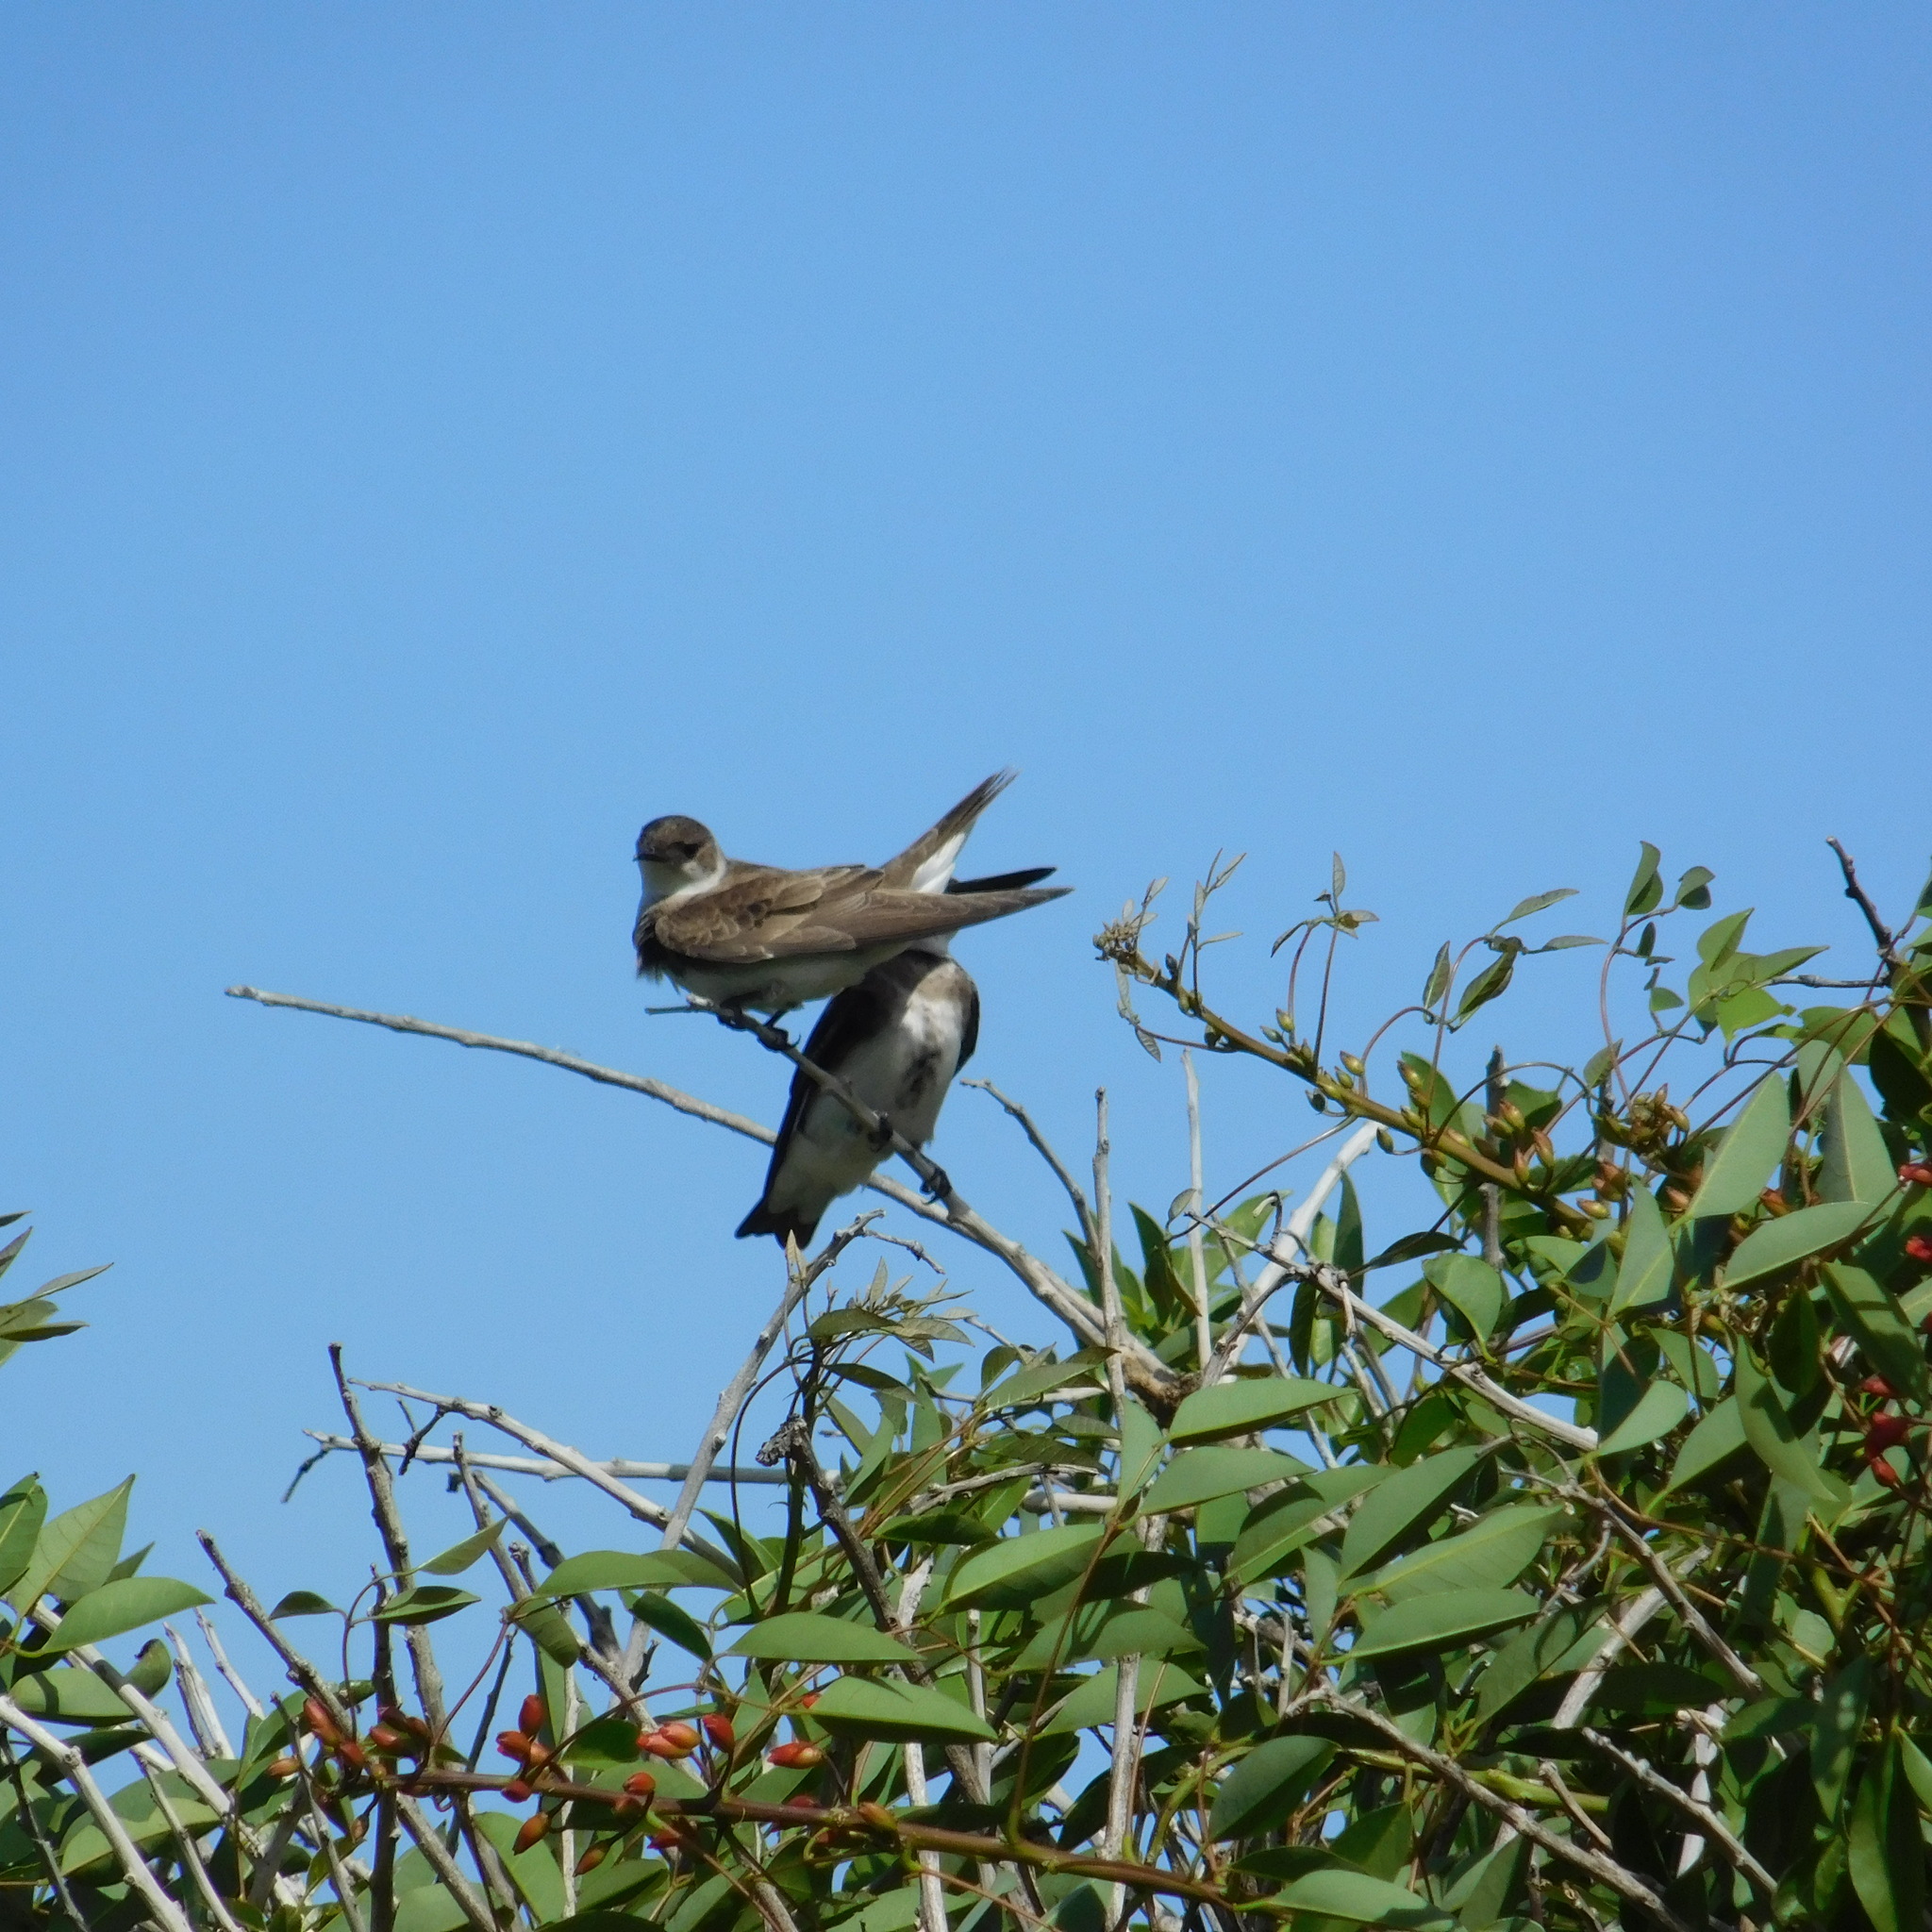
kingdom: Animalia
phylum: Chordata
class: Aves
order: Passeriformes
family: Hirundinidae
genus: Progne
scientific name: Progne tapera
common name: Brown-chested martin
